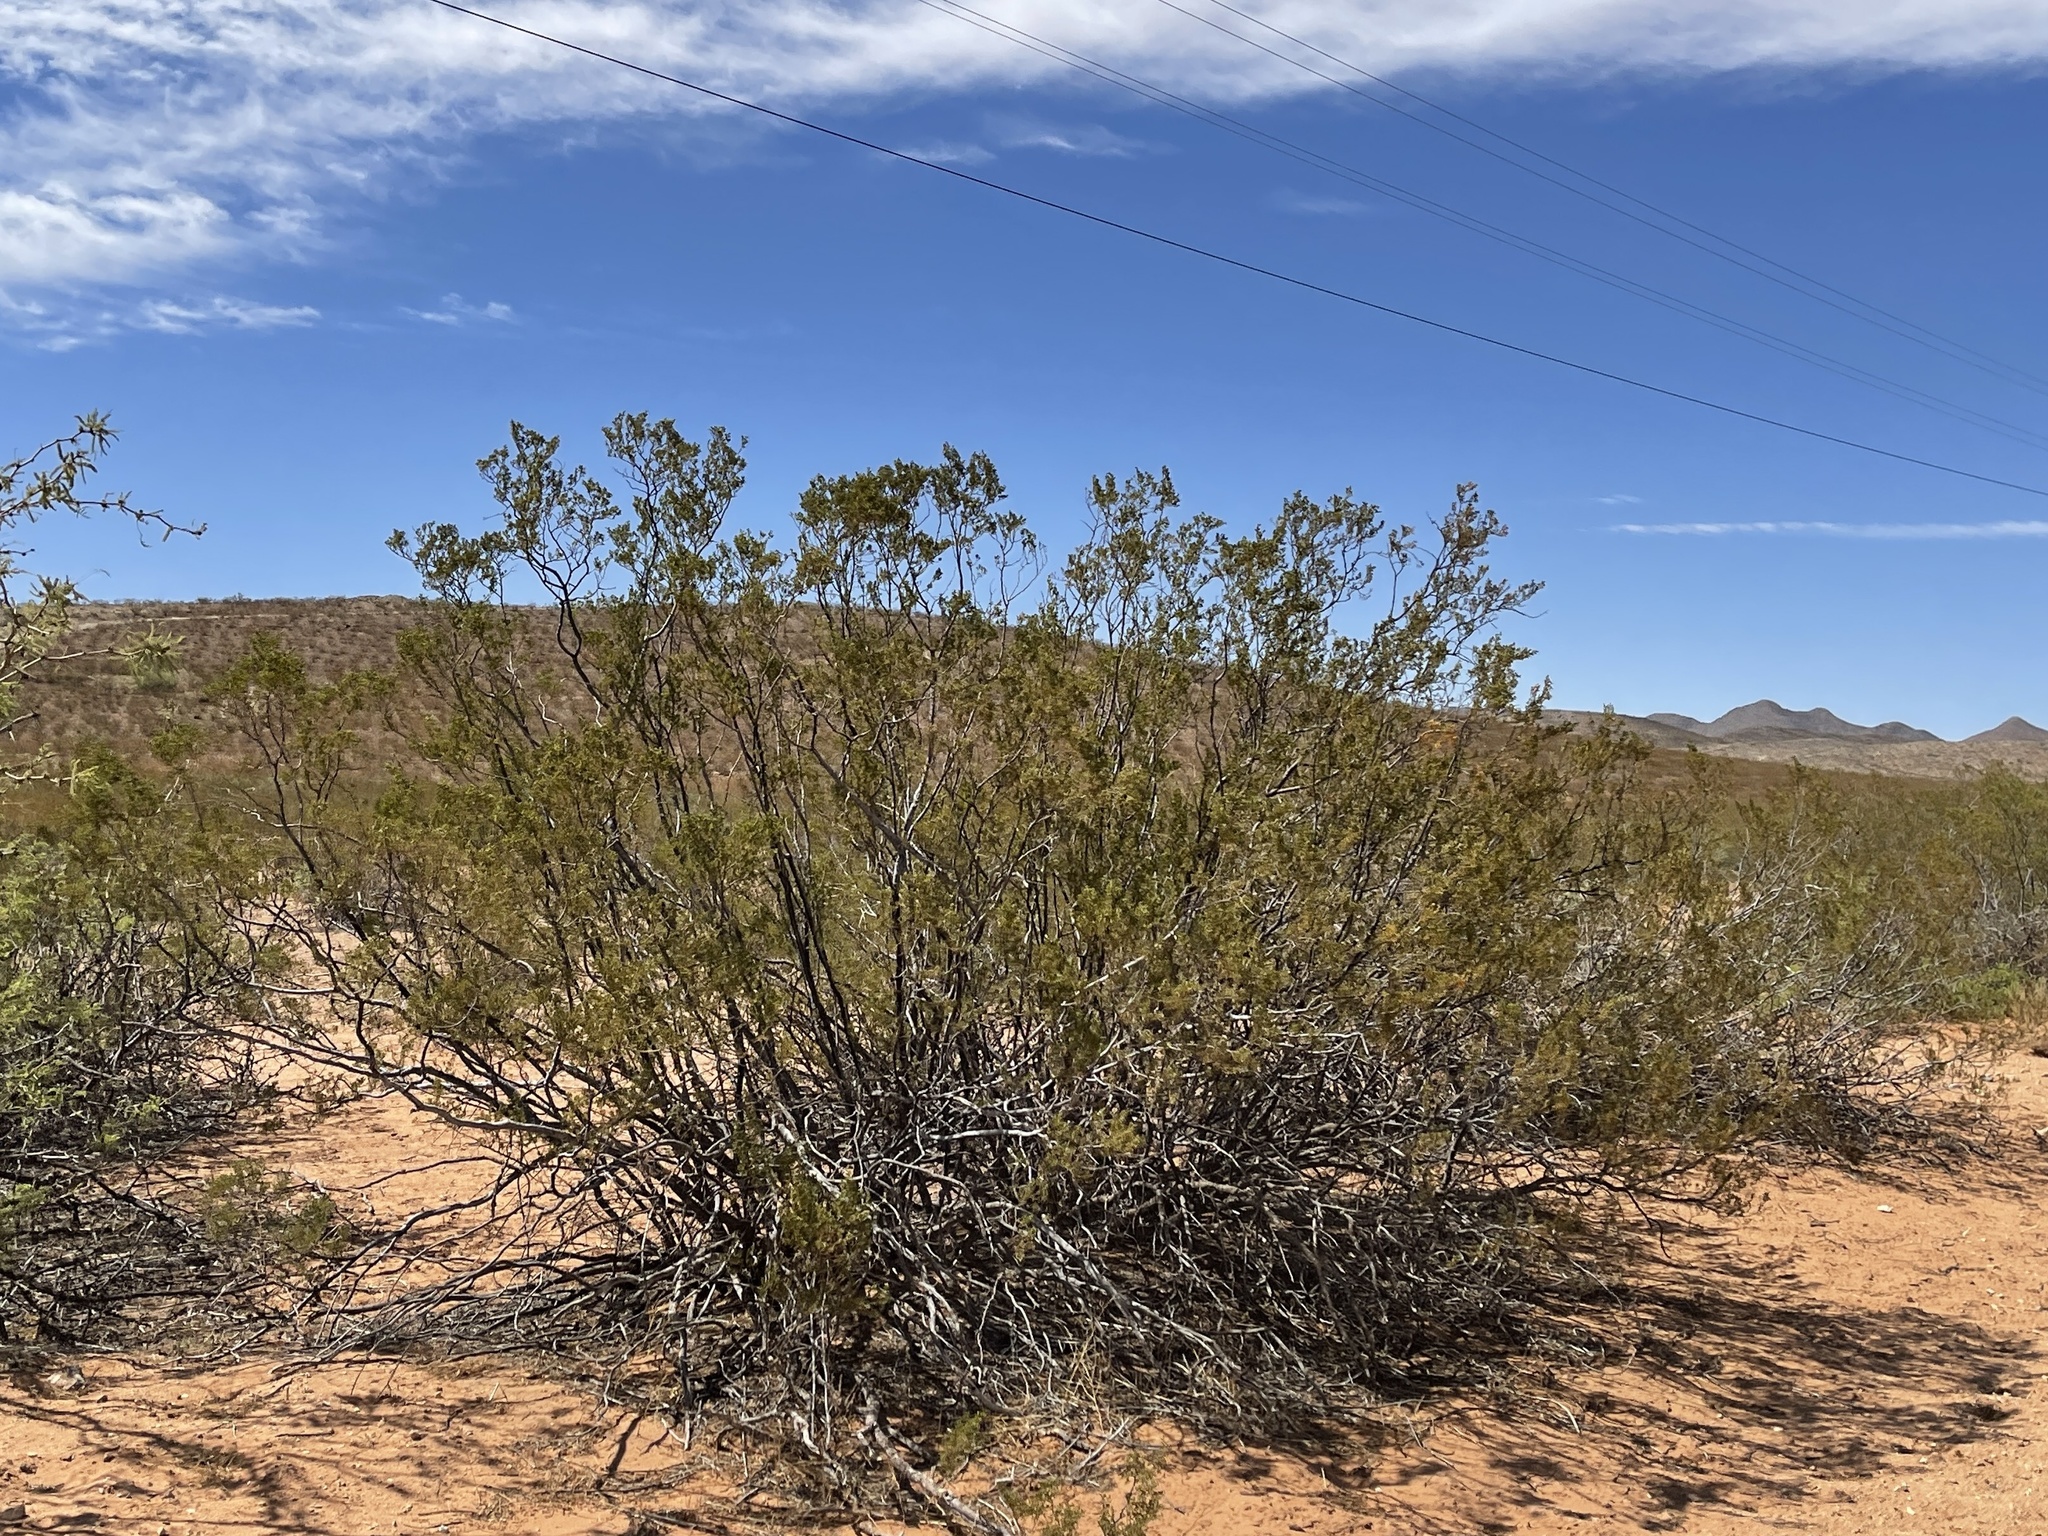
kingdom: Plantae
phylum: Tracheophyta
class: Magnoliopsida
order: Zygophyllales
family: Zygophyllaceae
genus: Larrea
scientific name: Larrea tridentata
